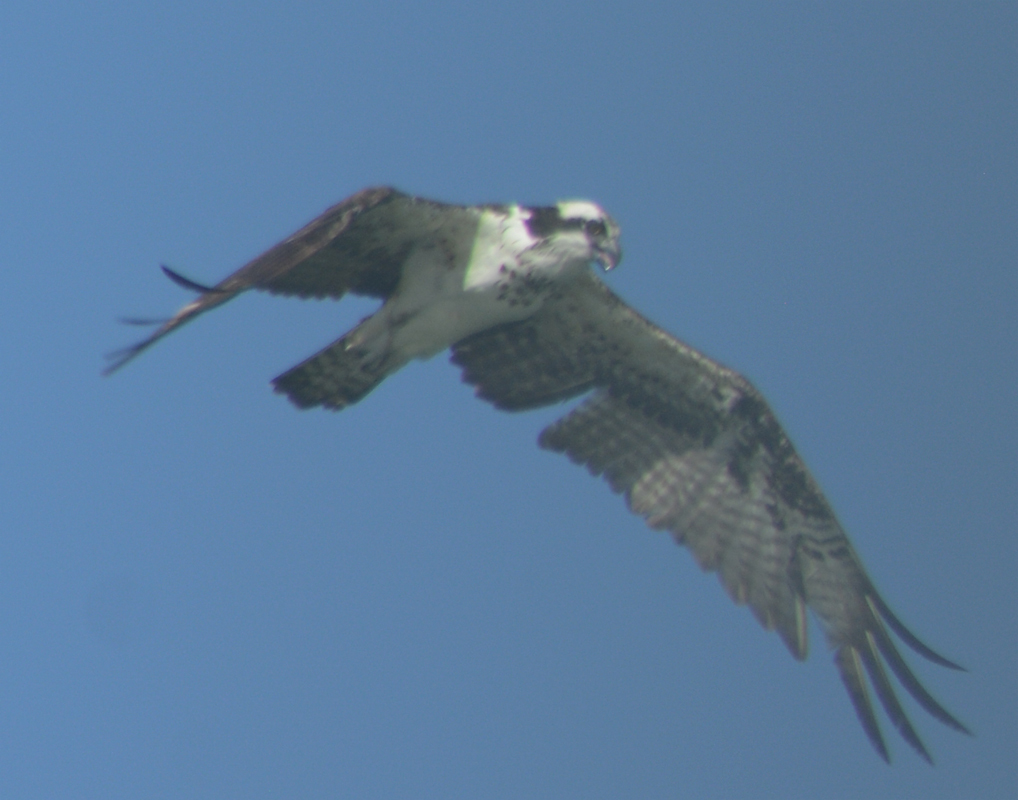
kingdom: Animalia
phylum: Chordata
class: Aves
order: Accipitriformes
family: Pandionidae
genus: Pandion
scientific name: Pandion haliaetus
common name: Osprey
